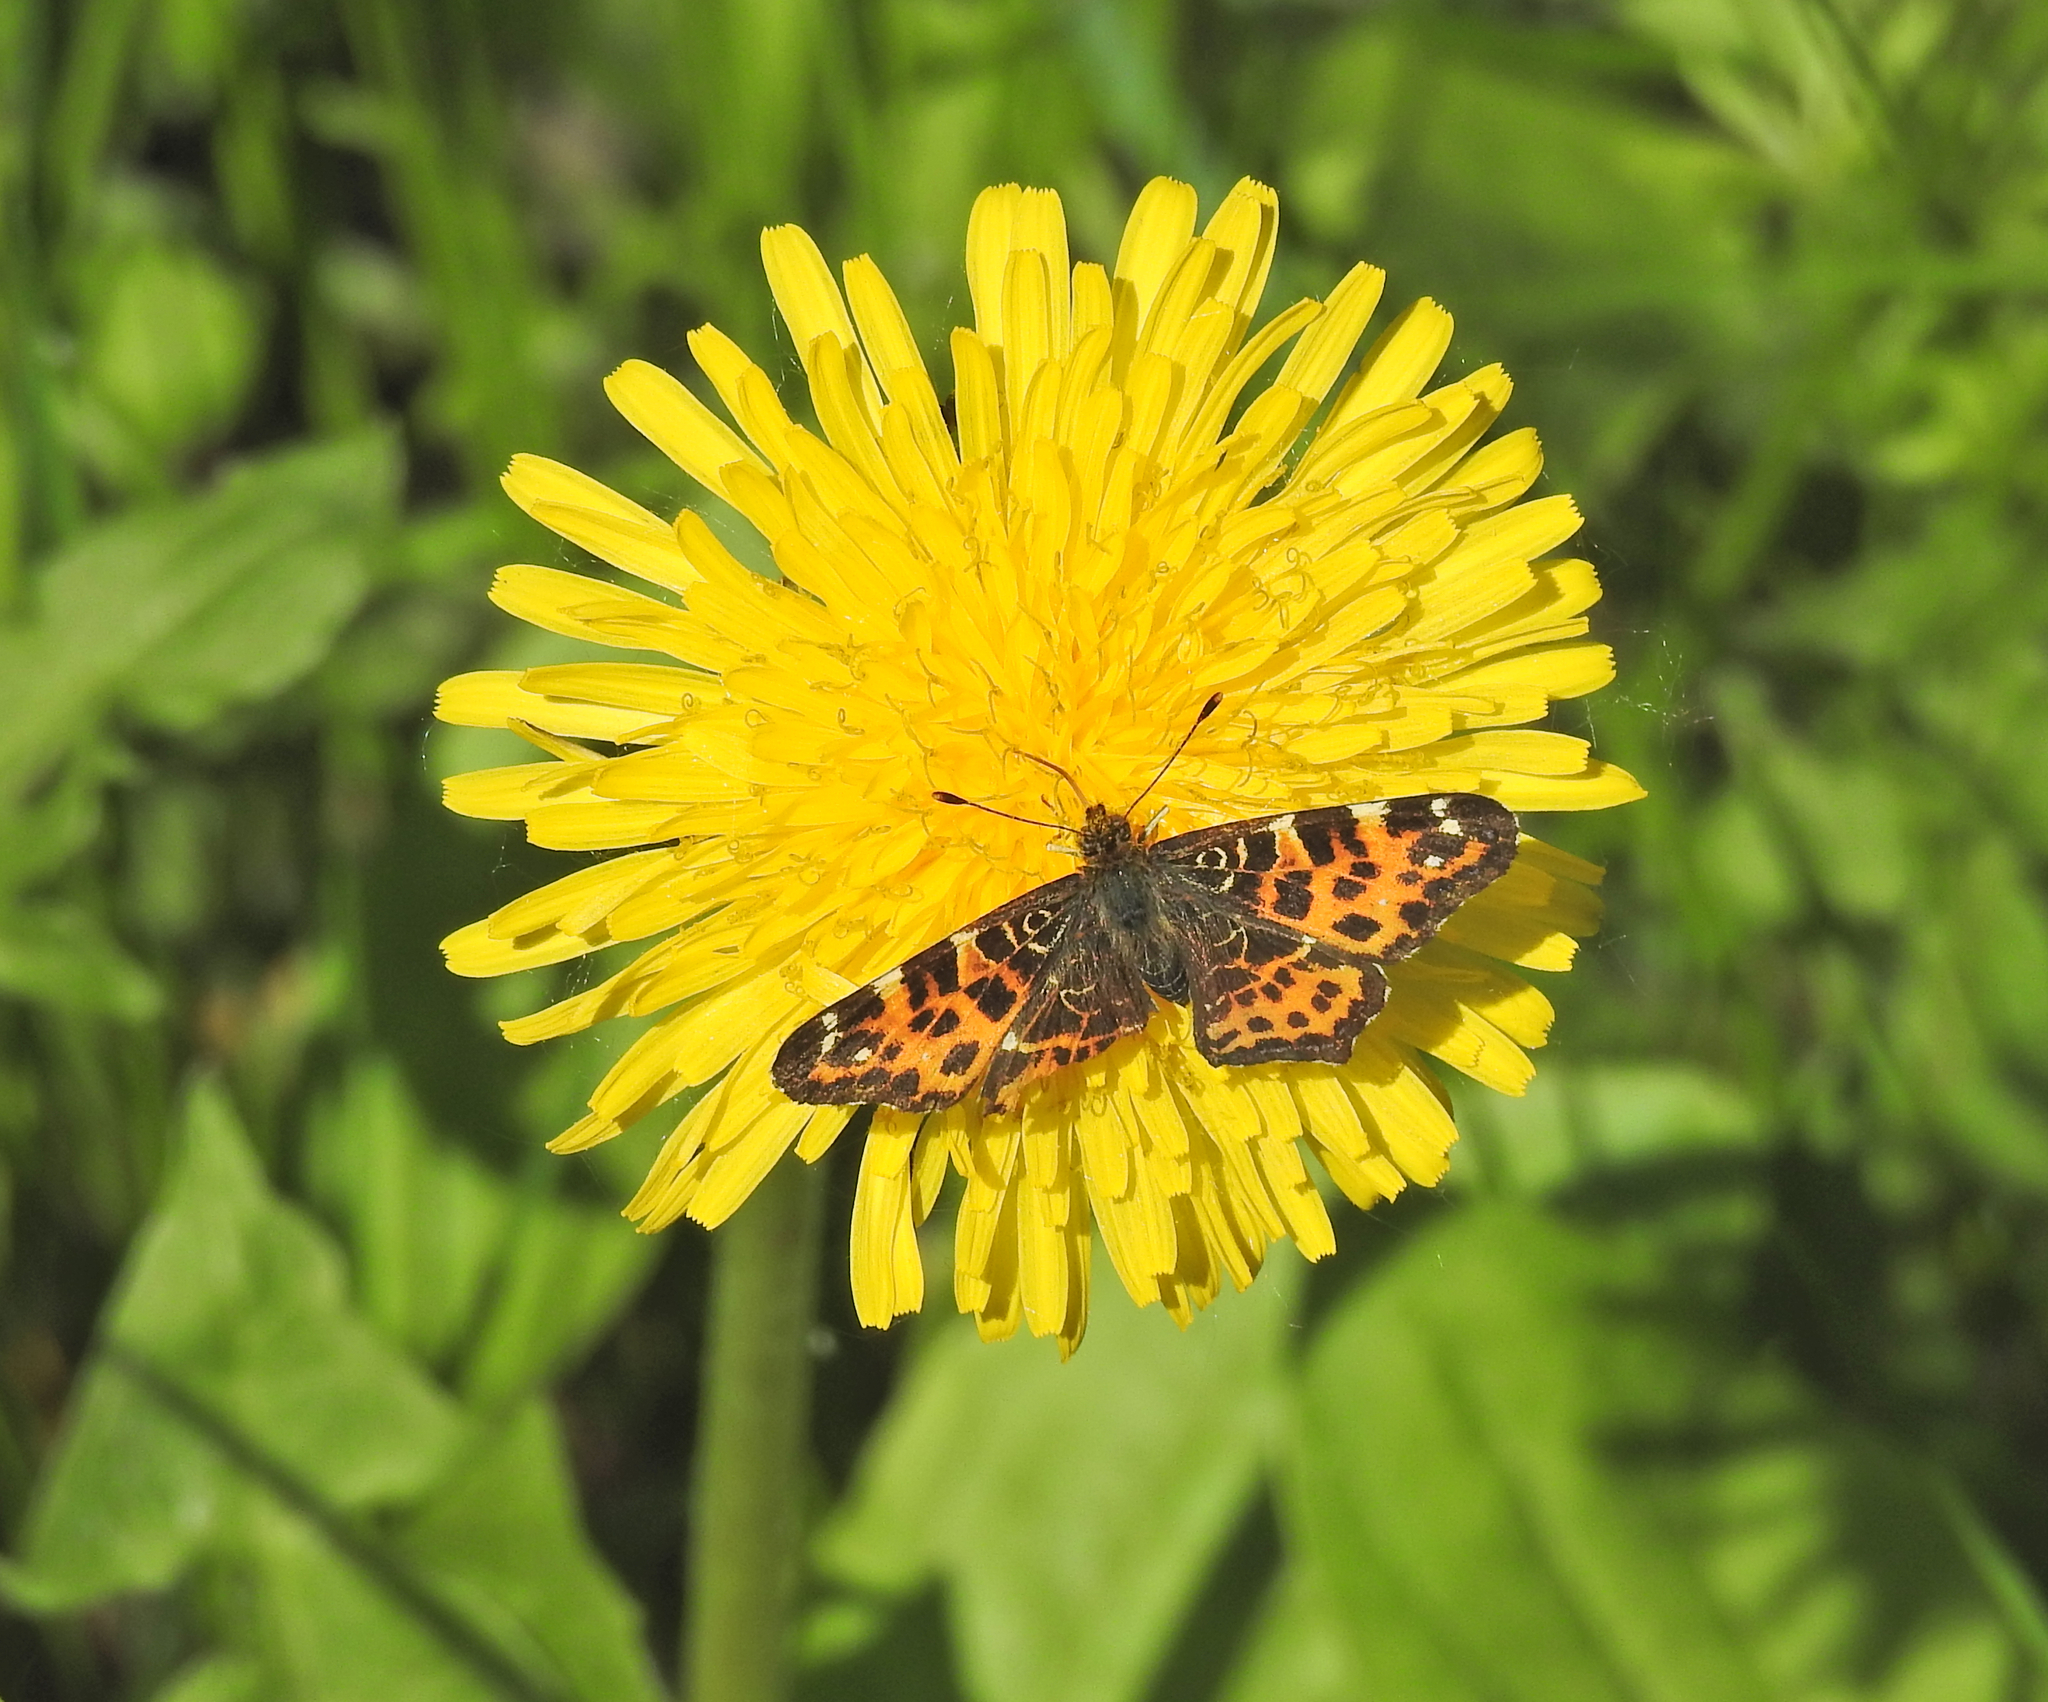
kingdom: Animalia
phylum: Arthropoda
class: Insecta
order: Lepidoptera
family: Nymphalidae
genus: Araschnia
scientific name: Araschnia levana
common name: Map butterfly
